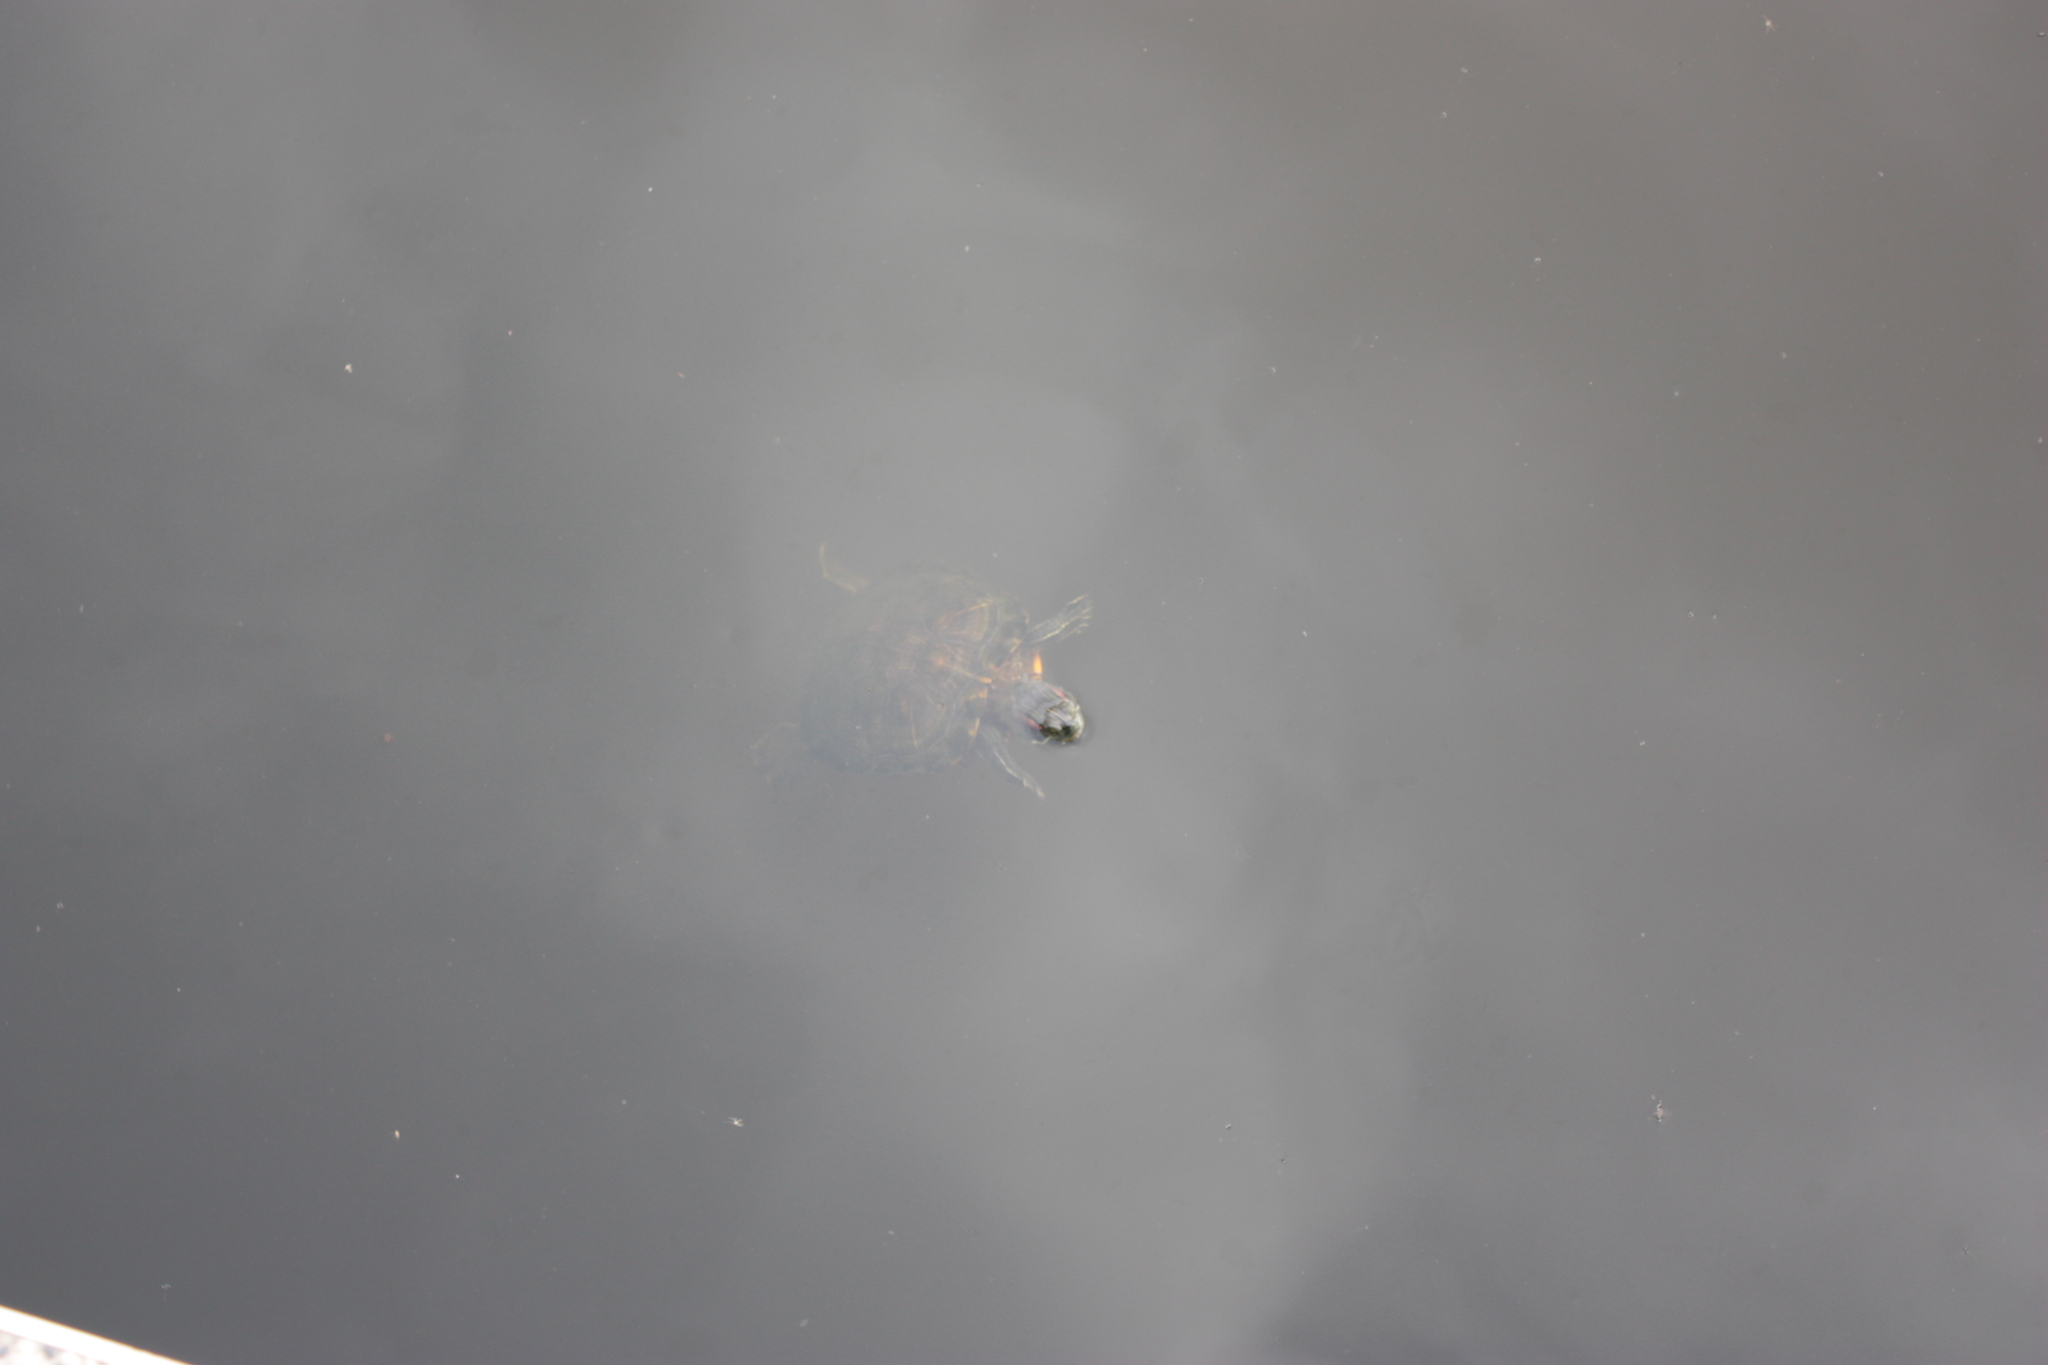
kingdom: Animalia
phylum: Chordata
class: Testudines
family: Emydidae
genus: Trachemys
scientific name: Trachemys scripta
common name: Slider
